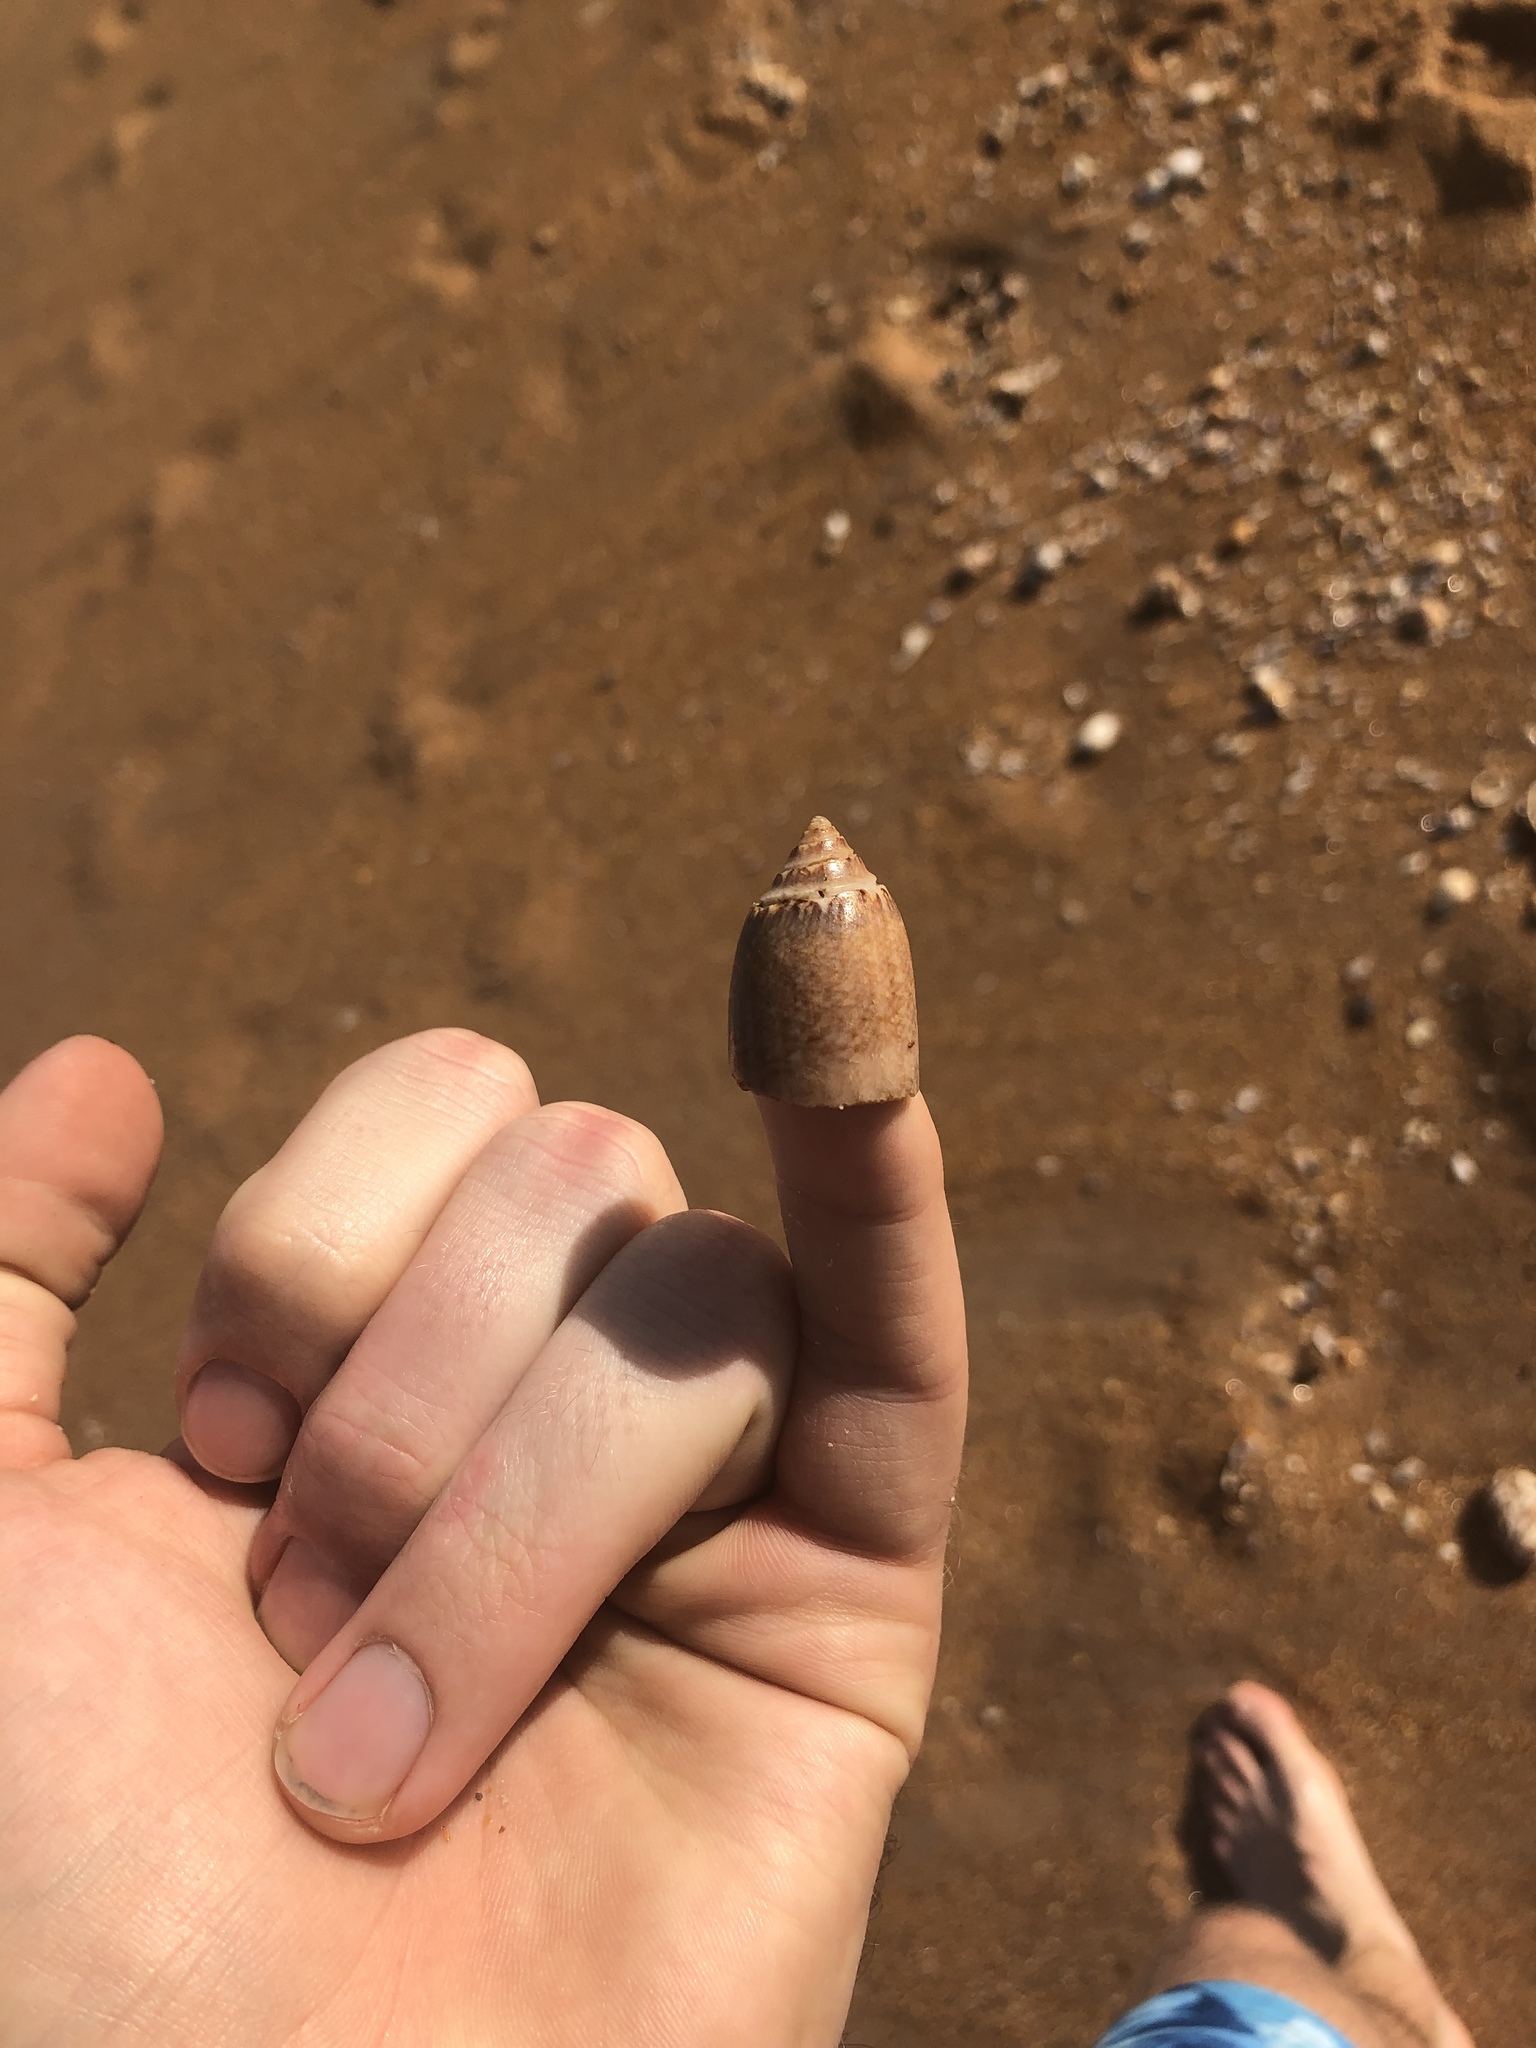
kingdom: Animalia
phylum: Mollusca
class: Gastropoda
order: Neogastropoda
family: Olividae
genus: Oliva
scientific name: Oliva sayana
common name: Lettered olive
